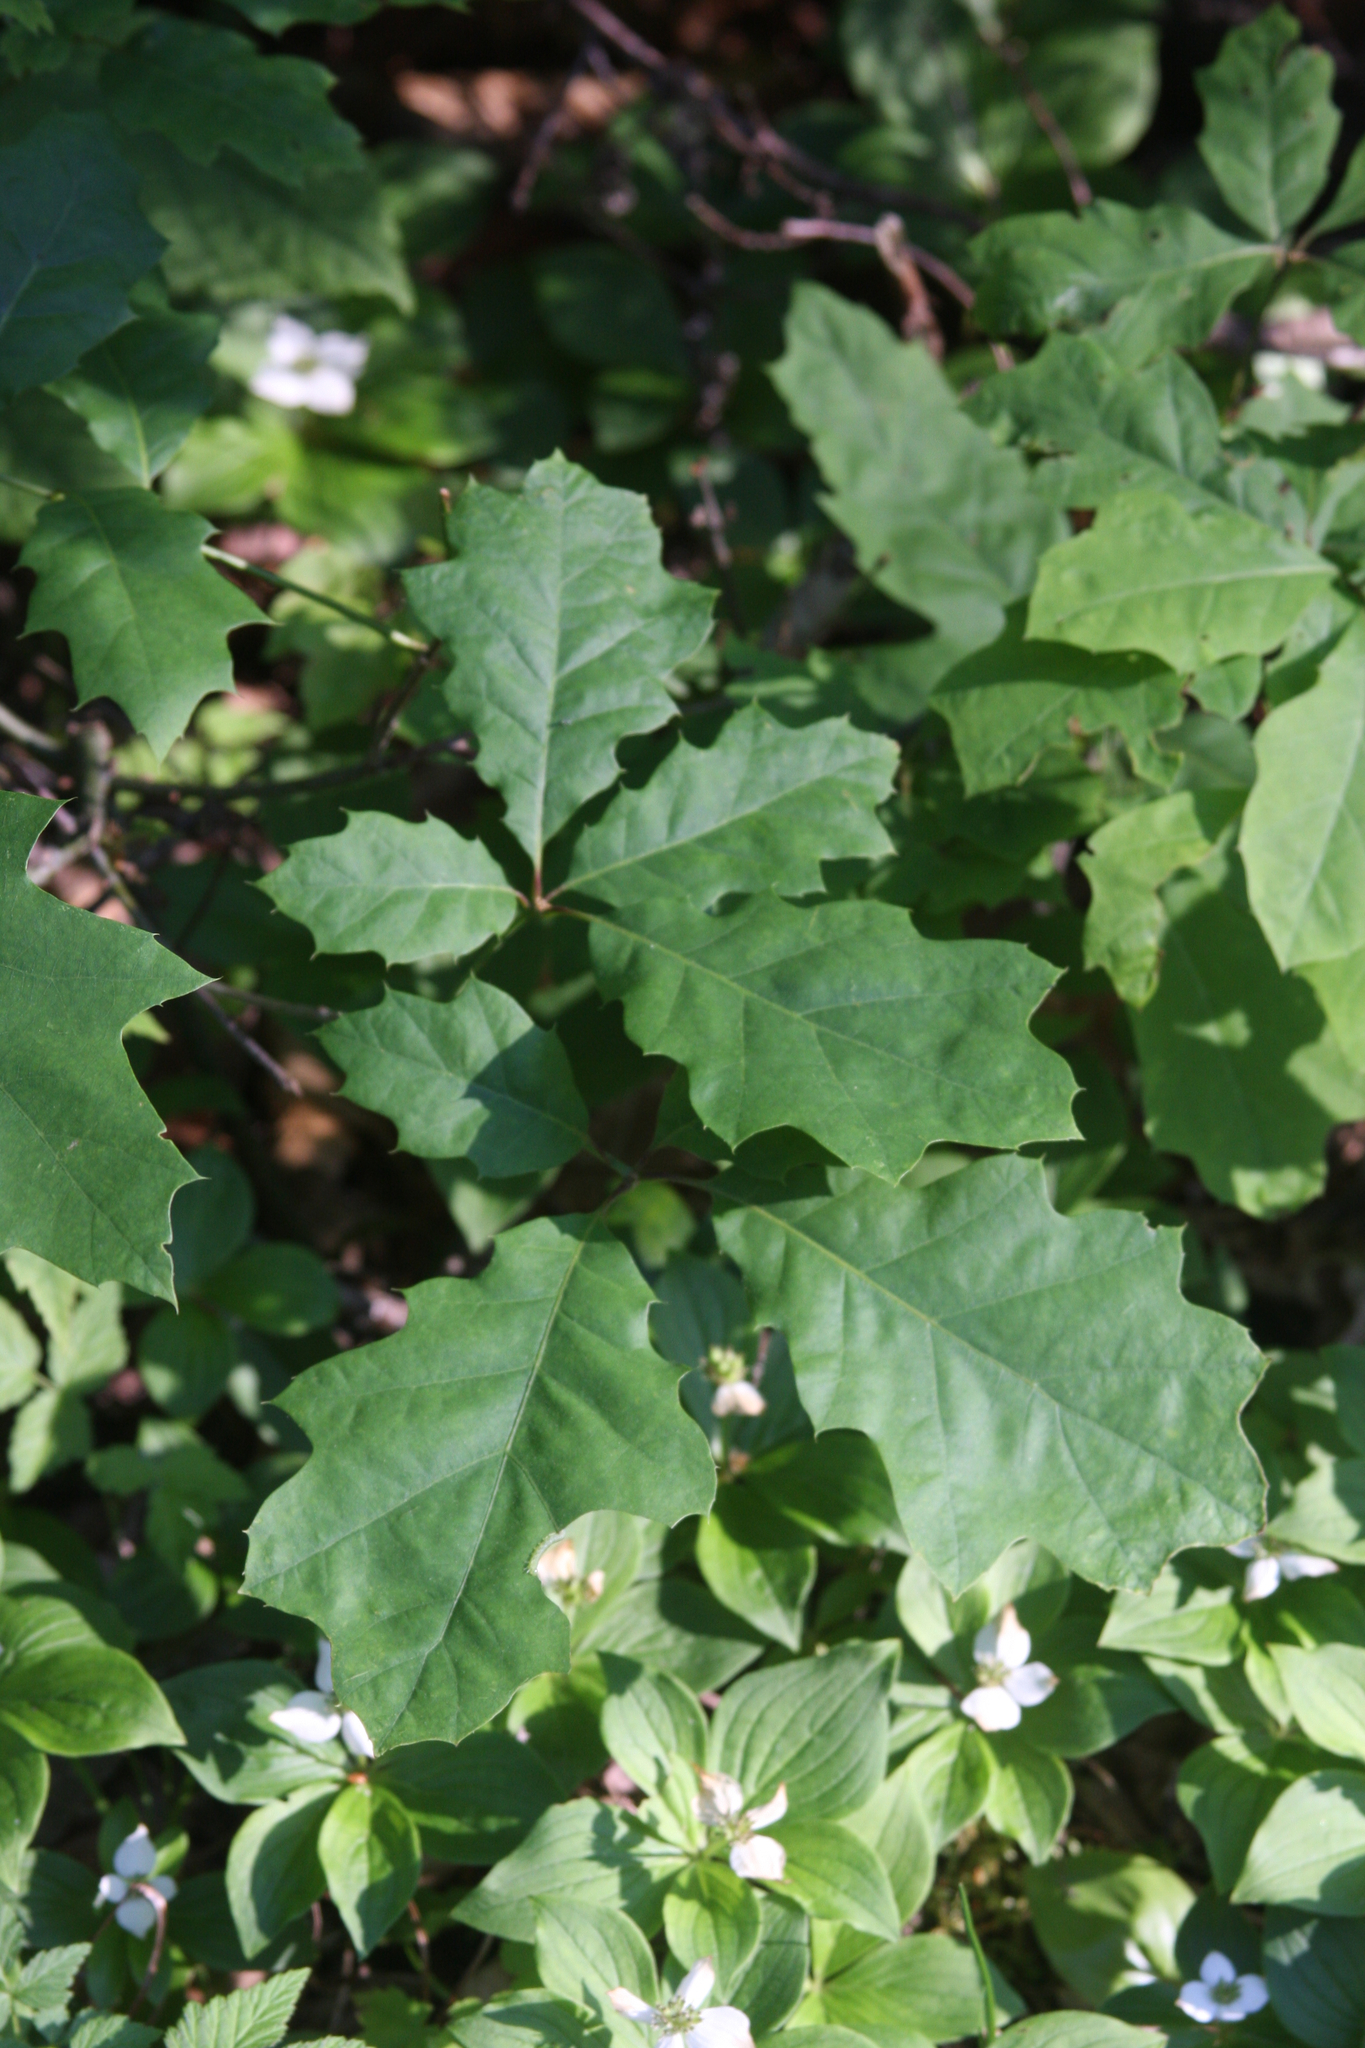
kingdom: Plantae
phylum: Tracheophyta
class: Magnoliopsida
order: Fagales
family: Fagaceae
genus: Quercus
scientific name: Quercus rubra
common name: Red oak
